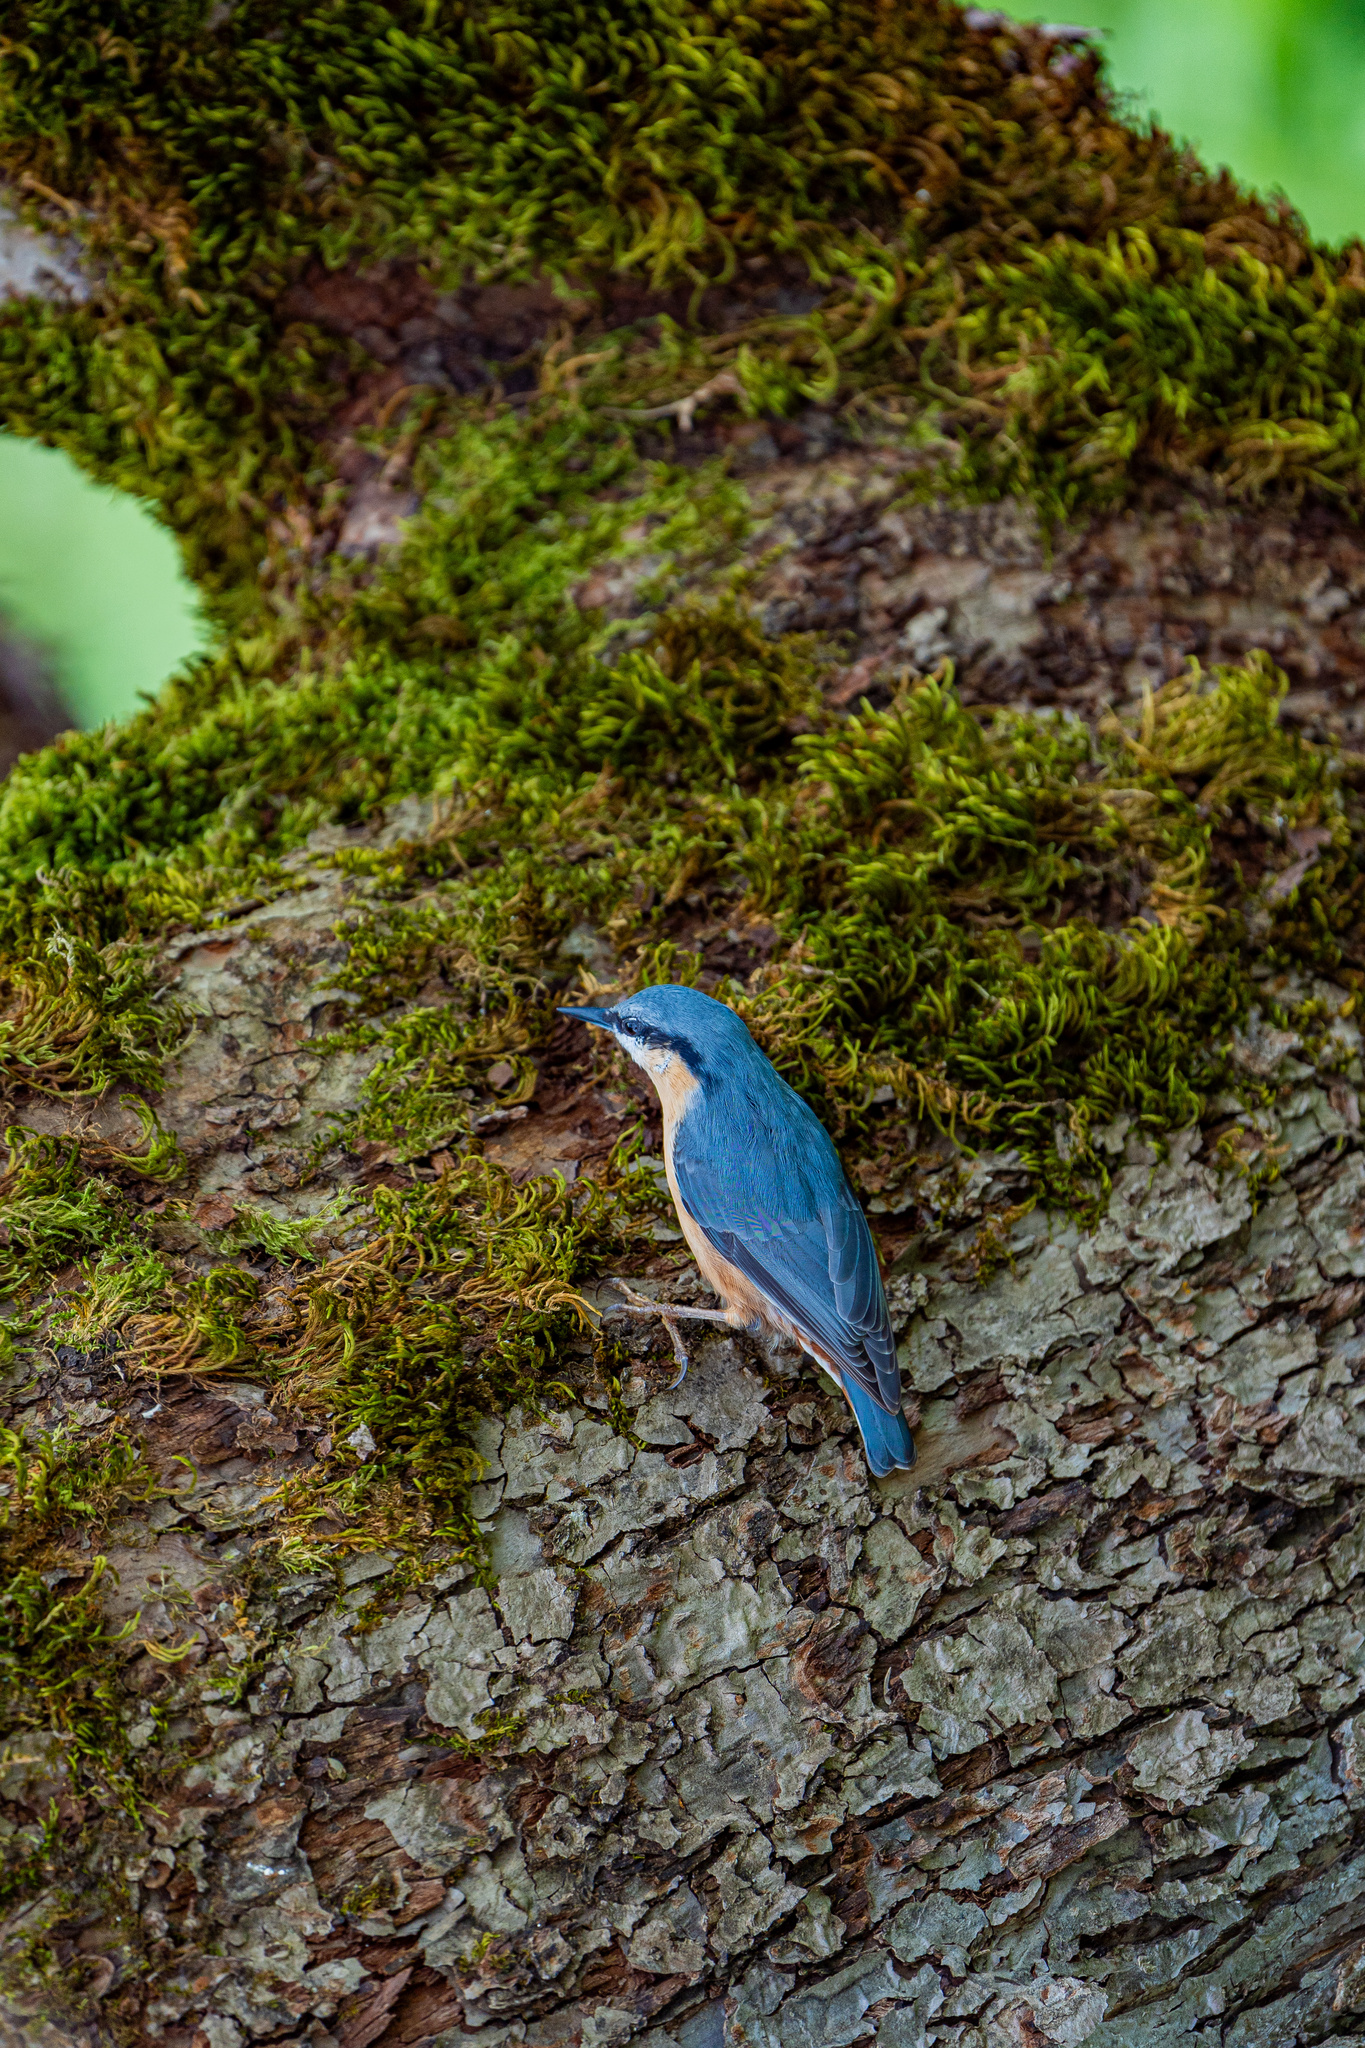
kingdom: Animalia
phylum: Chordata
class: Aves
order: Passeriformes
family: Sittidae
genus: Sitta
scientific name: Sitta europaea
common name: Eurasian nuthatch
